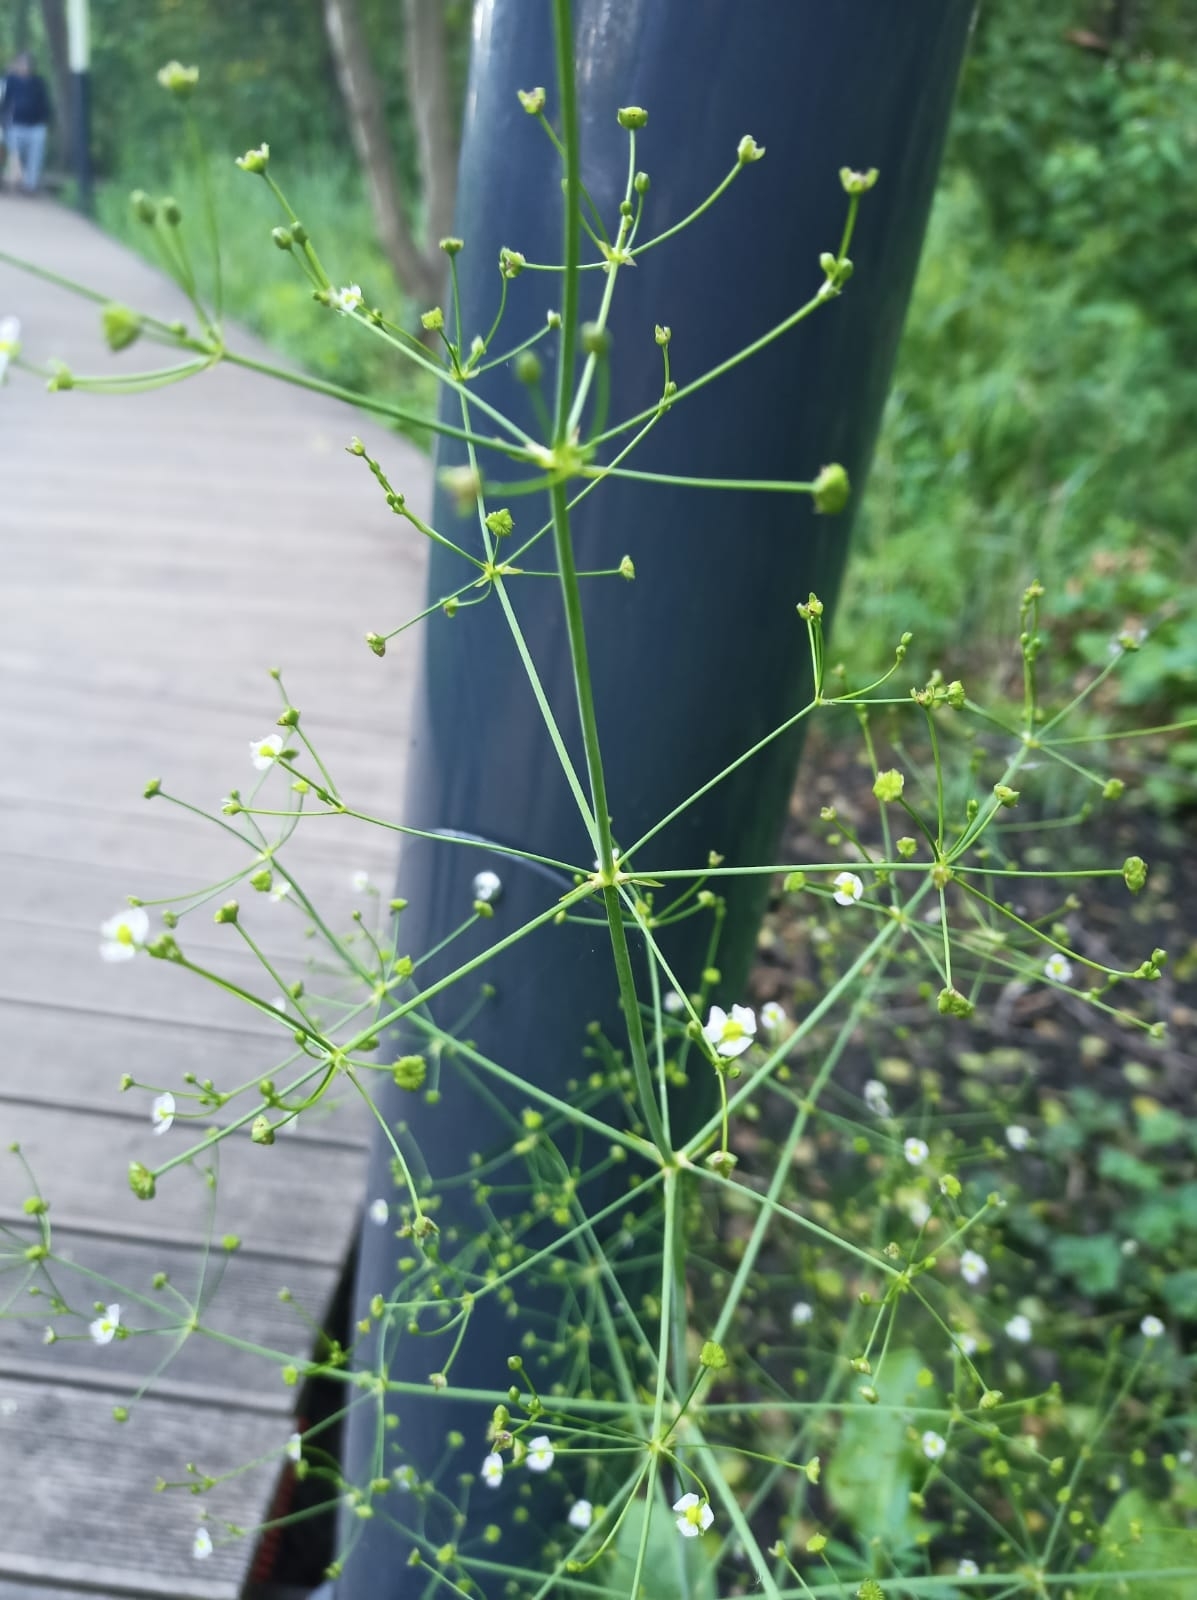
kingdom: Plantae
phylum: Tracheophyta
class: Liliopsida
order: Alismatales
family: Alismataceae
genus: Alisma
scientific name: Alisma plantago-aquatica
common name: Water-plantain
